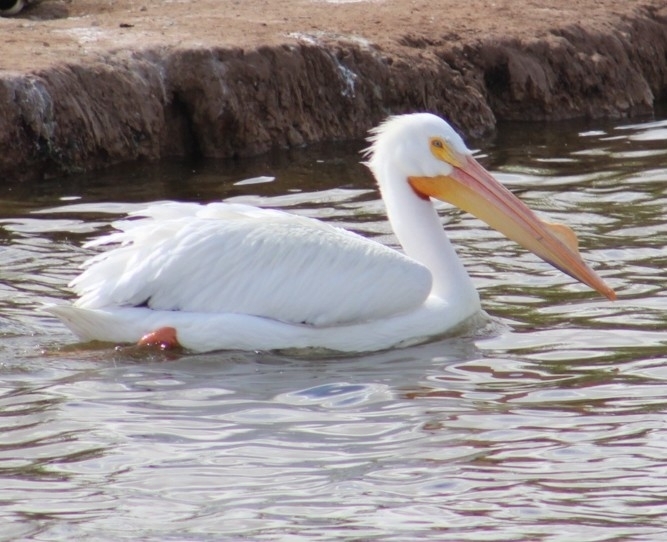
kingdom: Animalia
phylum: Chordata
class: Aves
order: Pelecaniformes
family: Pelecanidae
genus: Pelecanus
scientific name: Pelecanus erythrorhynchos
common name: American white pelican
